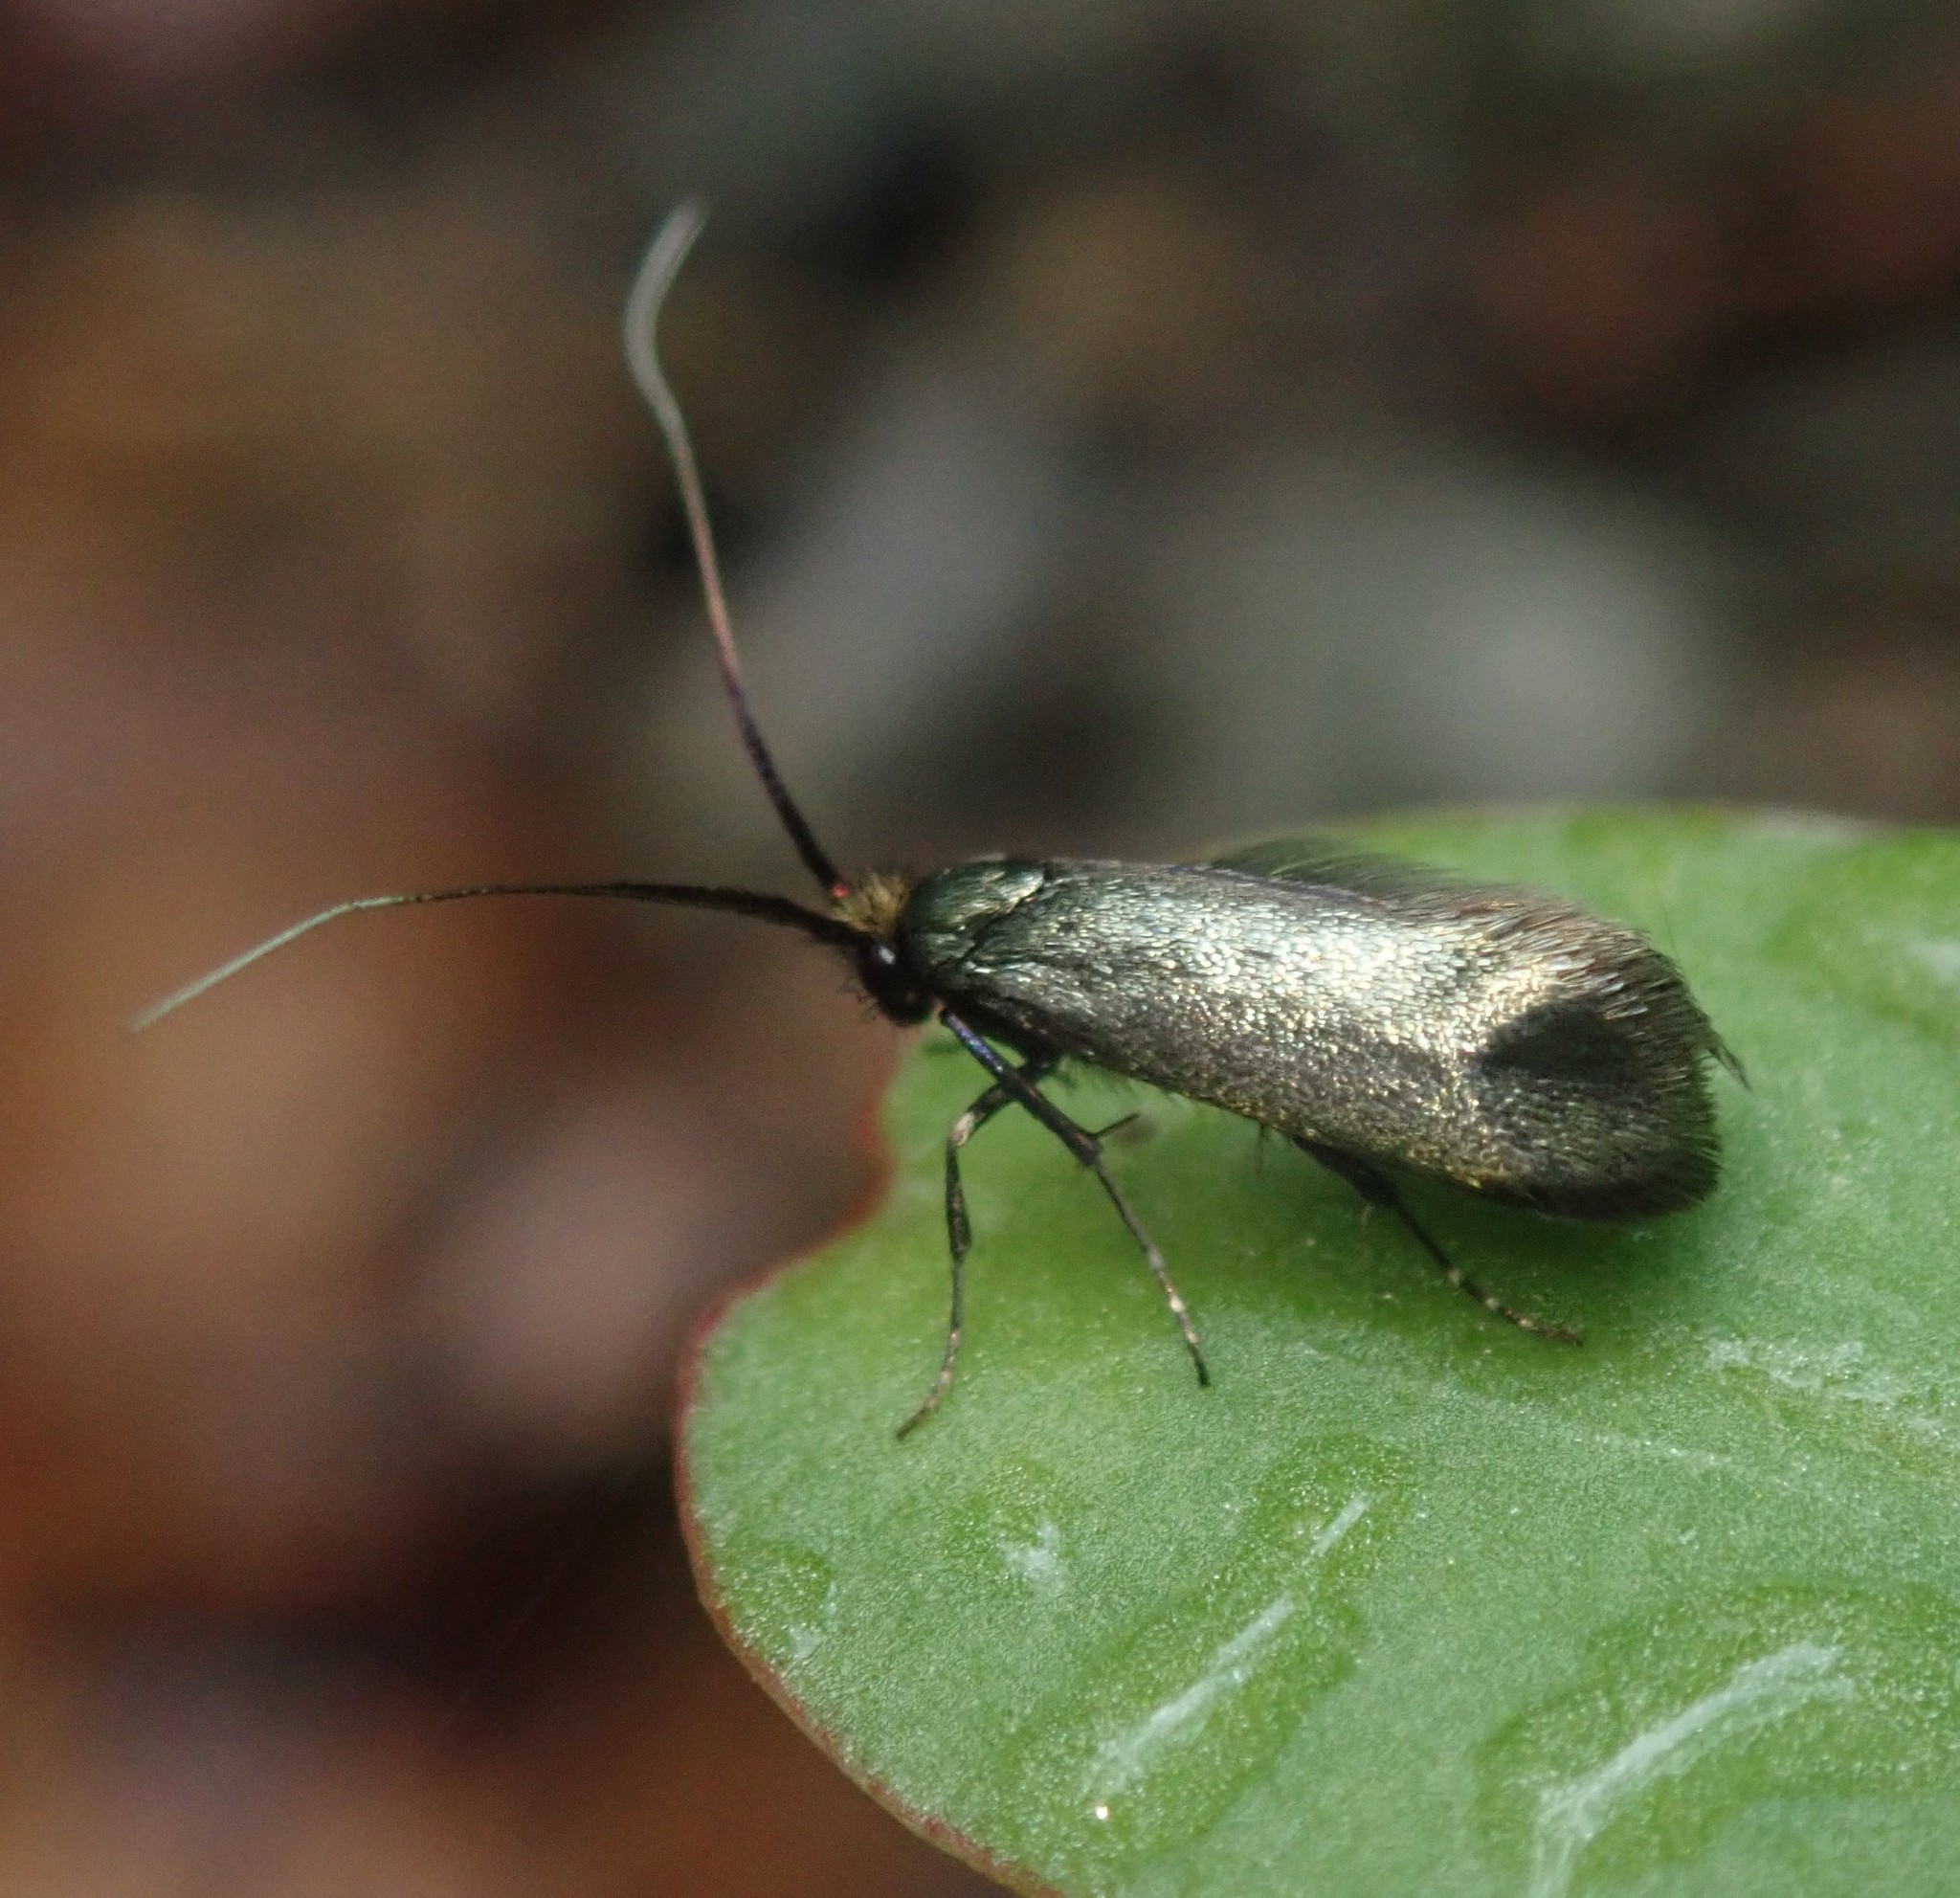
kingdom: Animalia
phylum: Arthropoda
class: Insecta
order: Lepidoptera
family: Adelidae
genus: Adela
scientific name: Adela viridella
